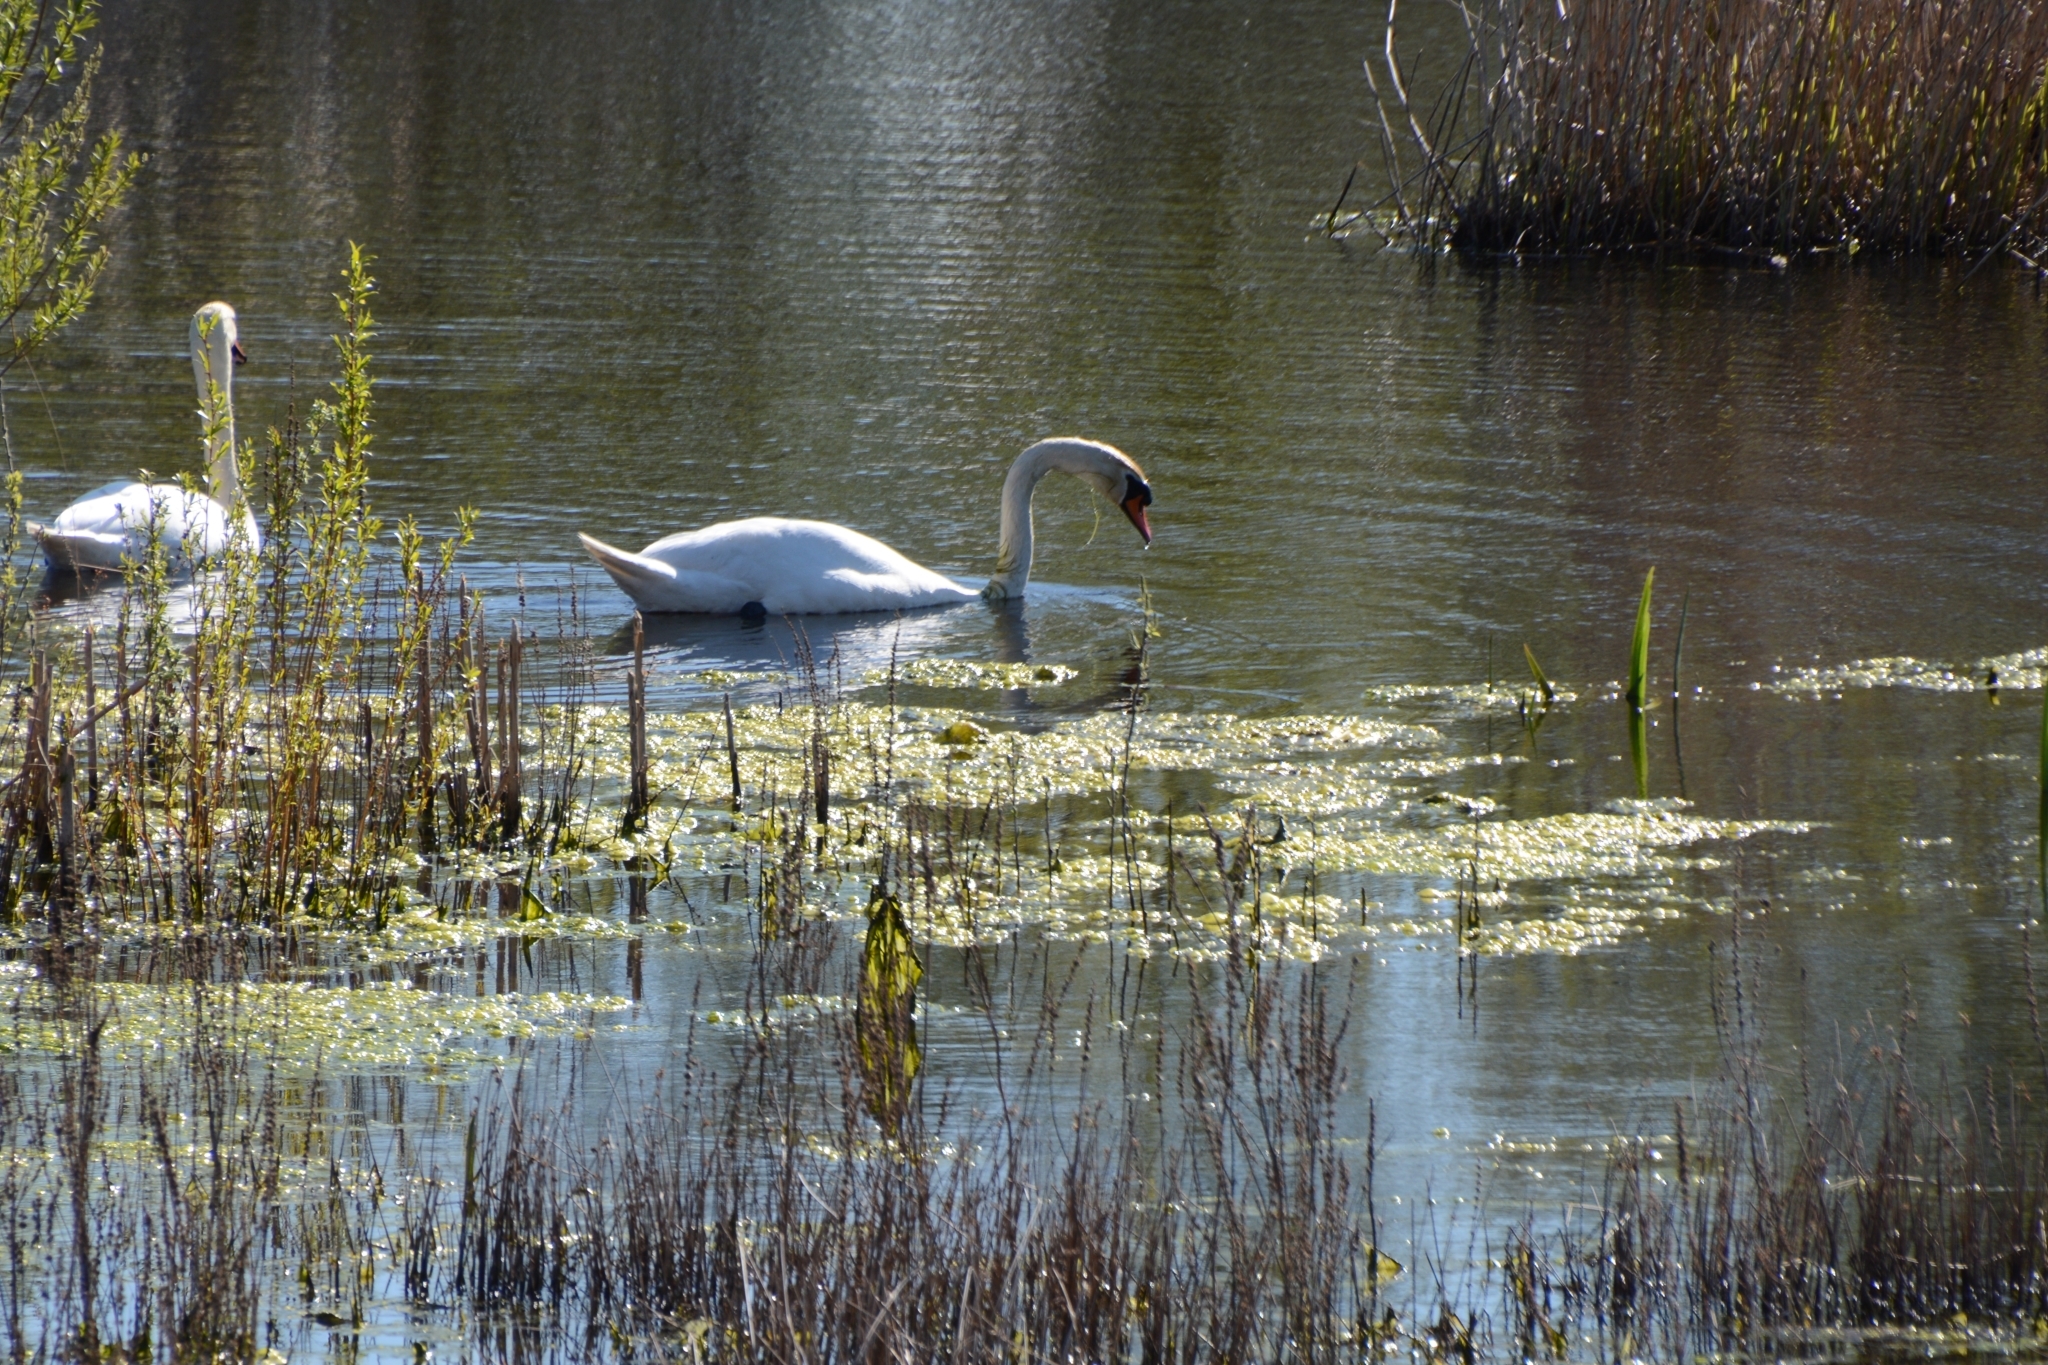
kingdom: Animalia
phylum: Chordata
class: Aves
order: Anseriformes
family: Anatidae
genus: Cygnus
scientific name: Cygnus olor
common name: Mute swan
